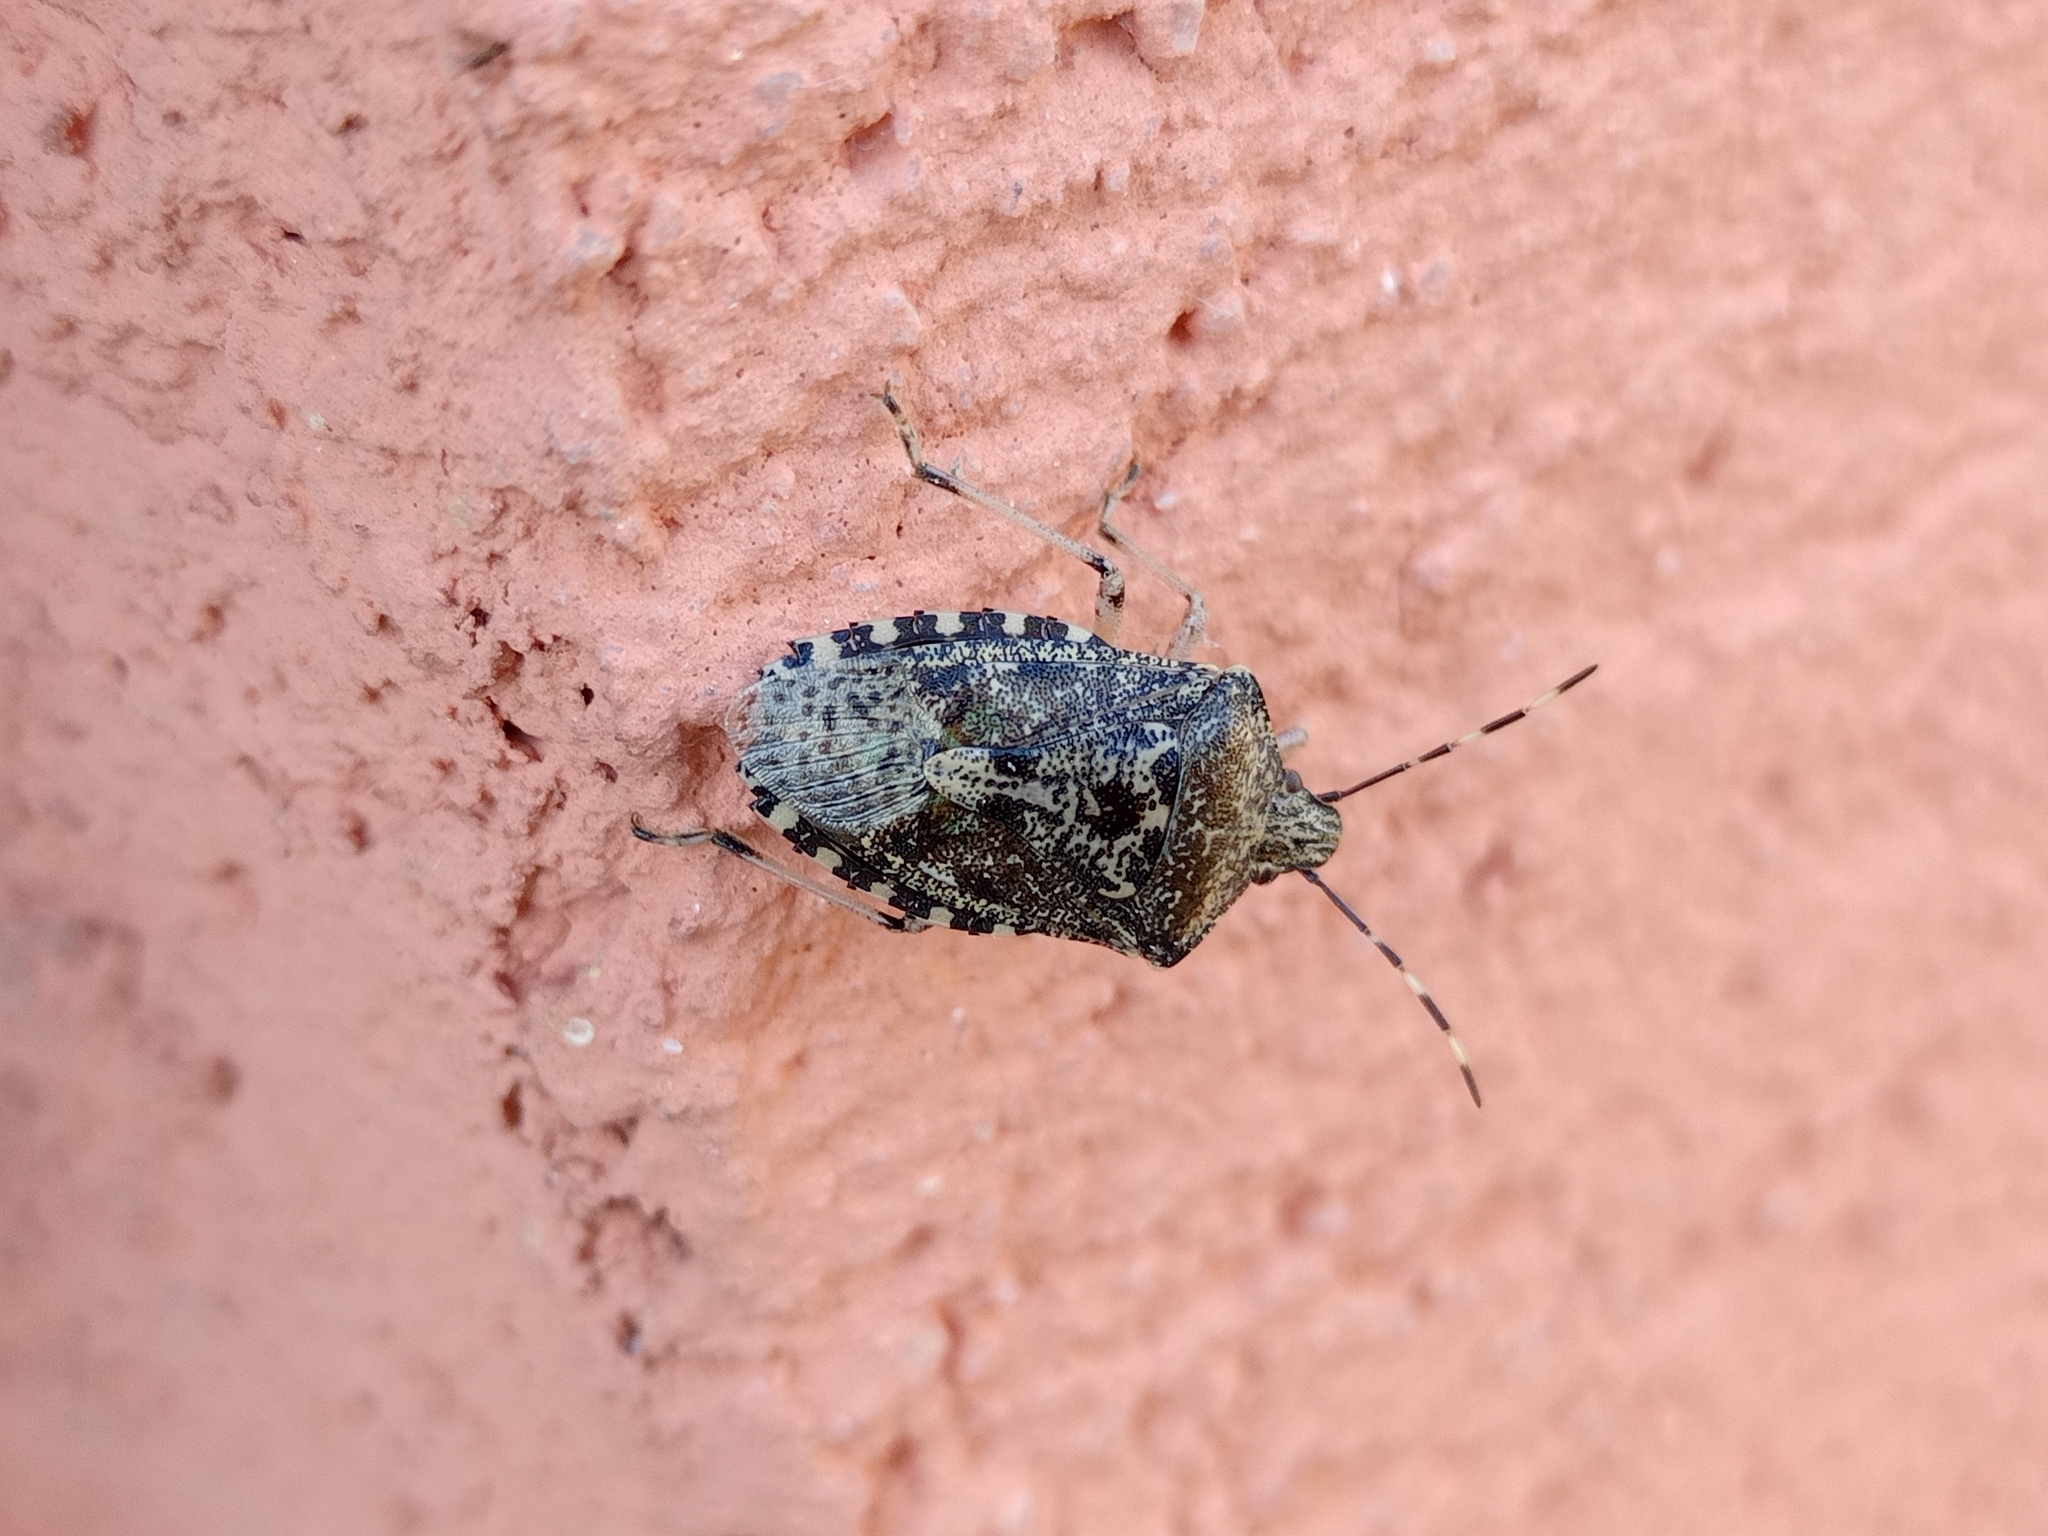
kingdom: Animalia
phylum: Arthropoda
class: Insecta
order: Hemiptera
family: Pentatomidae
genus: Rhaphigaster
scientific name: Rhaphigaster nebulosa
